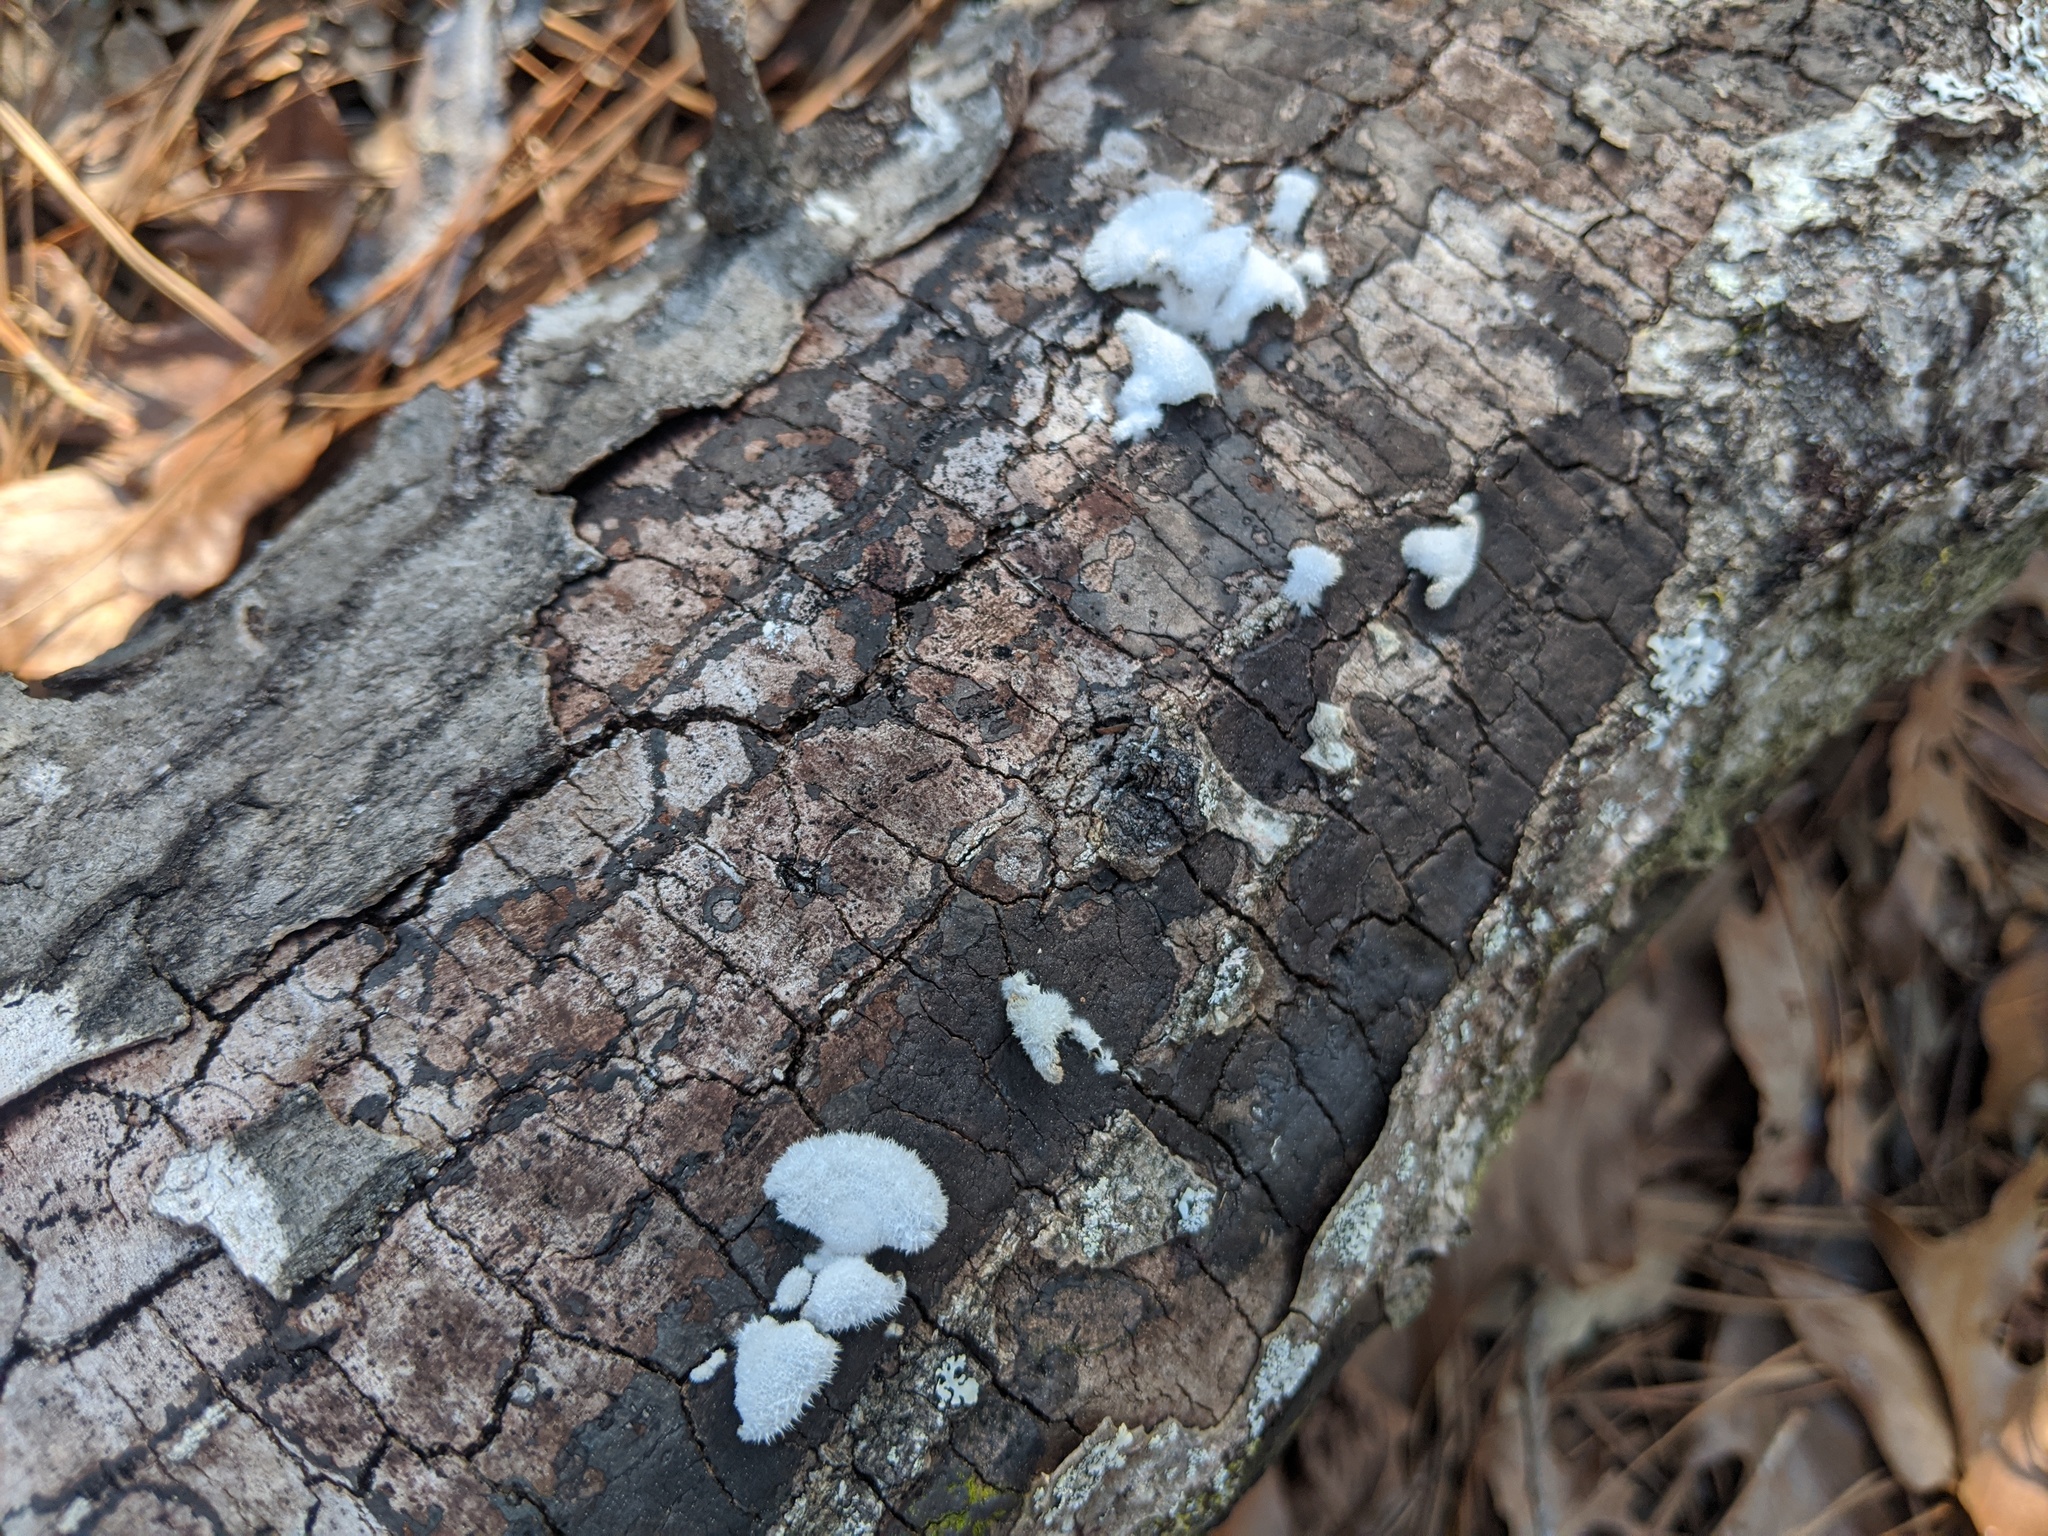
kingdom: Fungi
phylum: Basidiomycota
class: Agaricomycetes
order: Agaricales
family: Schizophyllaceae
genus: Schizophyllum
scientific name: Schizophyllum commune
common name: Common porecrust
